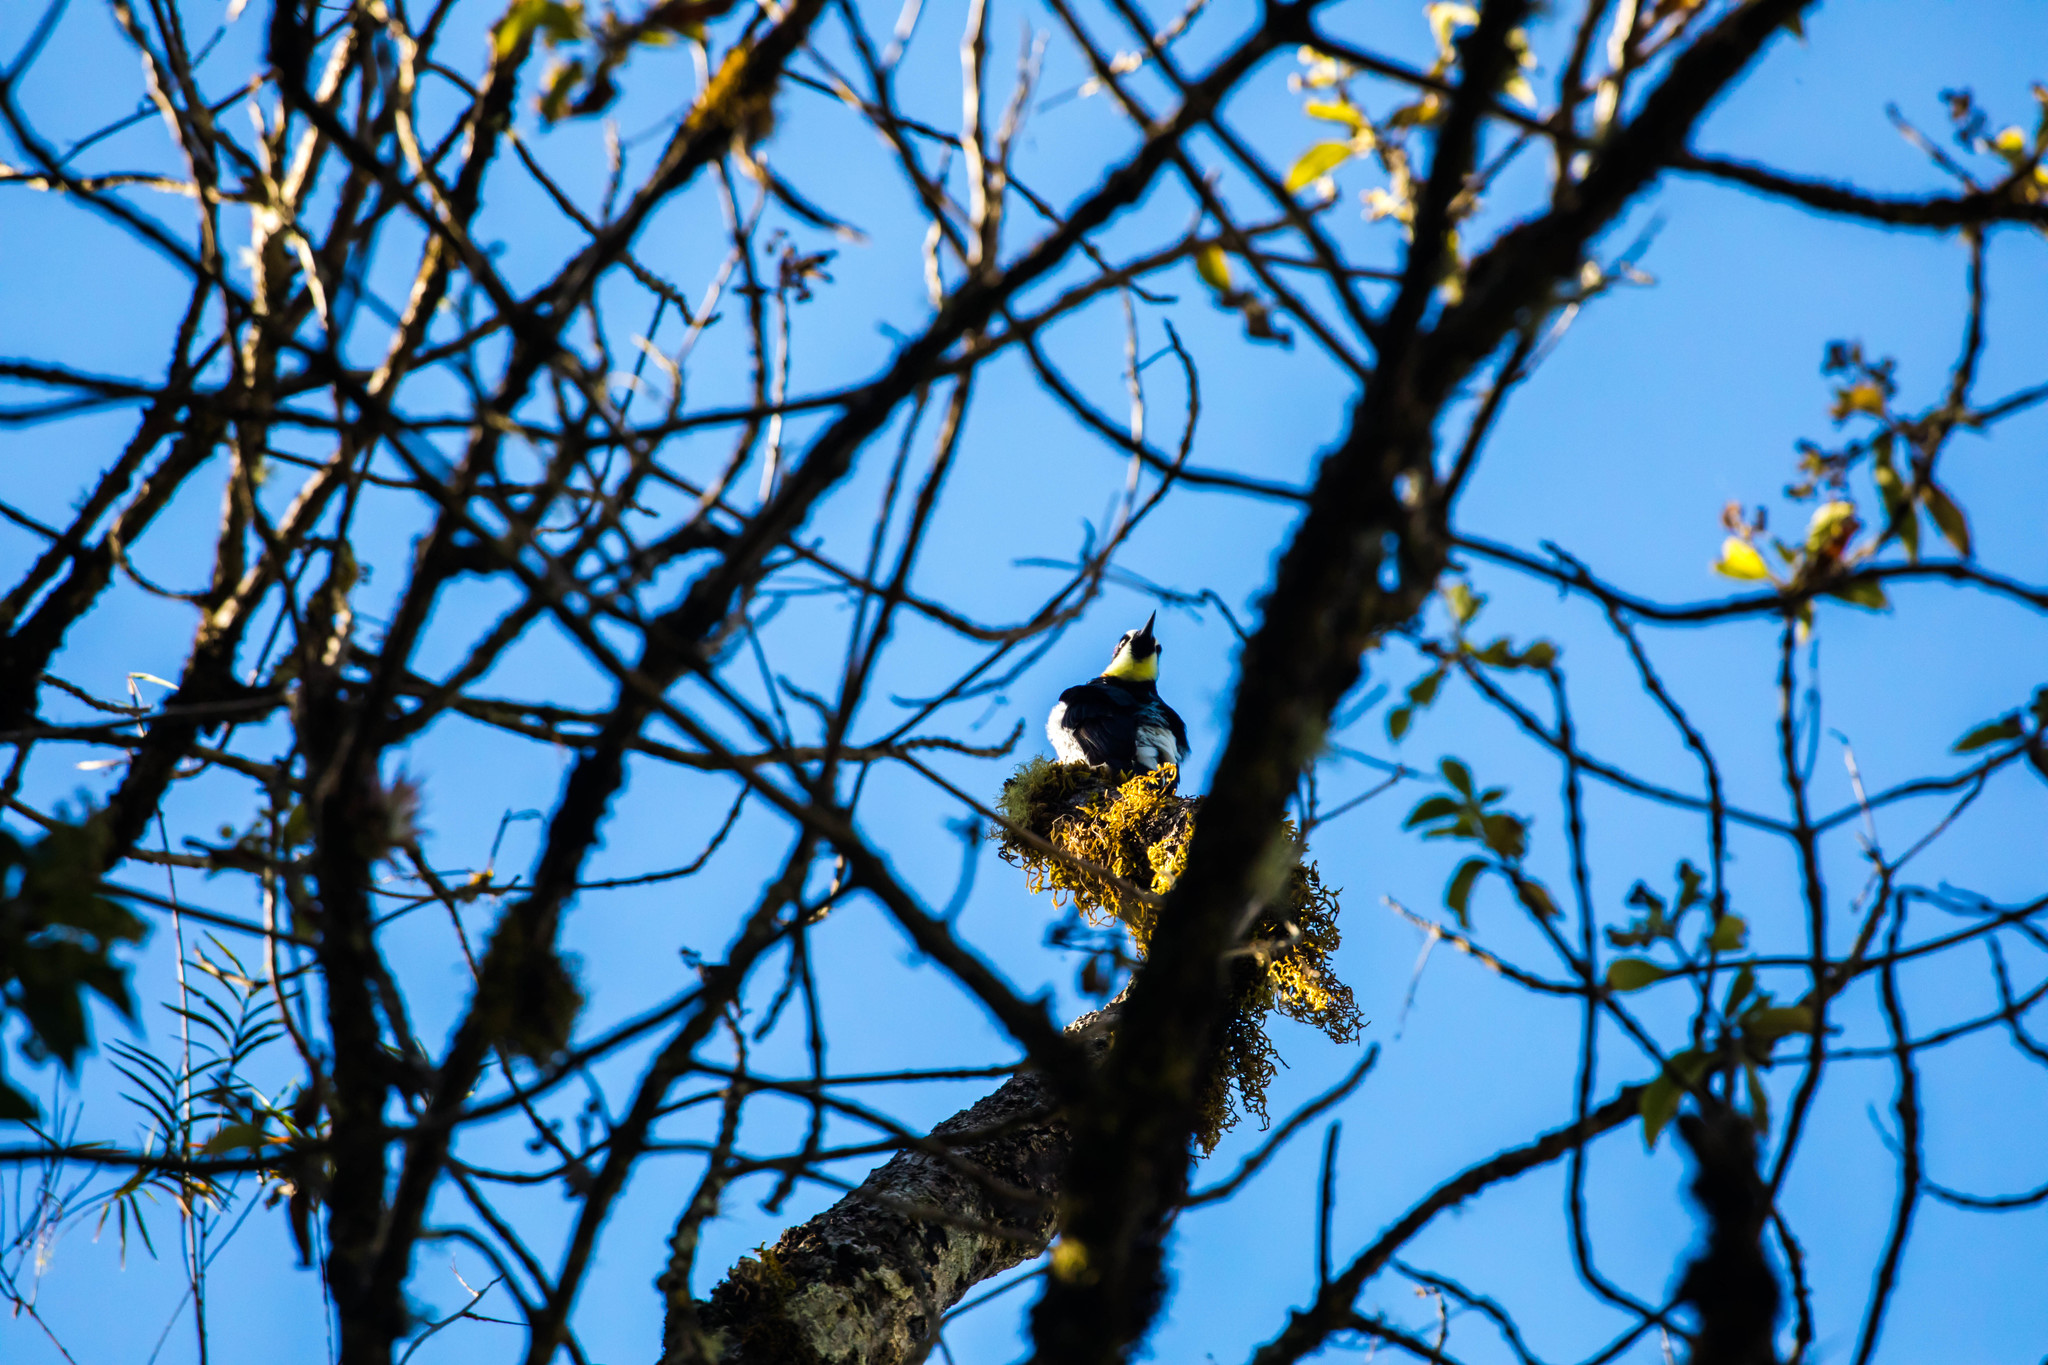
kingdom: Animalia
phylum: Chordata
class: Aves
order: Piciformes
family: Picidae
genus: Melanerpes
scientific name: Melanerpes formicivorus
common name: Acorn woodpecker
